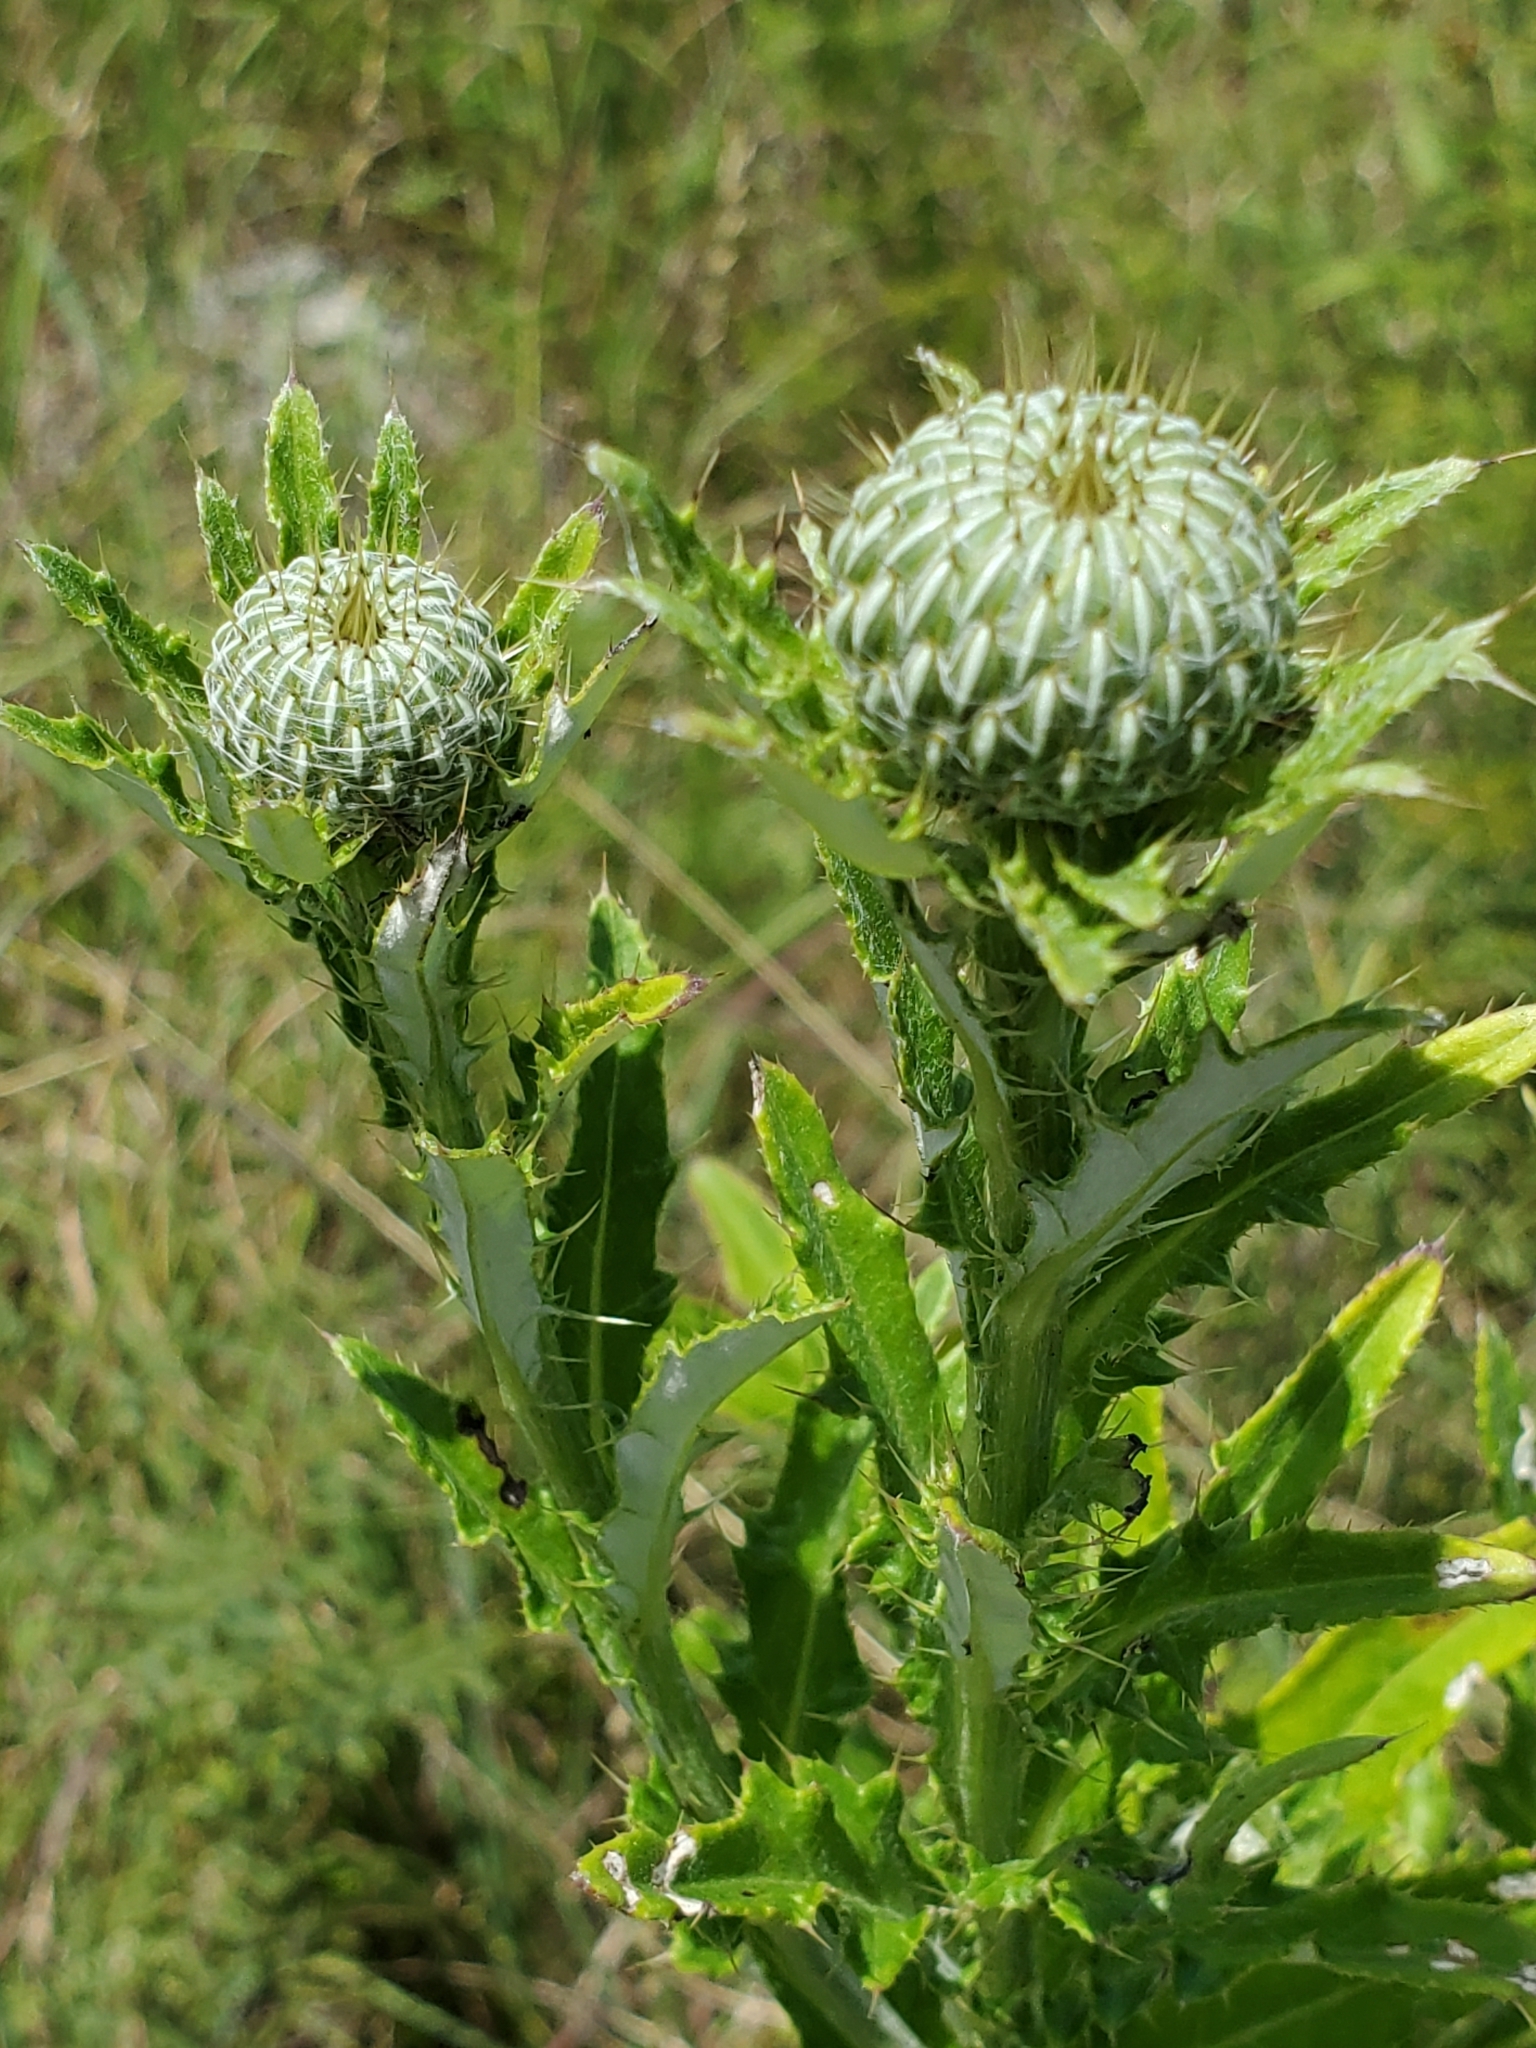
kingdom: Plantae
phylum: Tracheophyta
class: Magnoliopsida
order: Asterales
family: Asteraceae
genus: Cirsium
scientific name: Cirsium altissimum
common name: Roadside thistle
